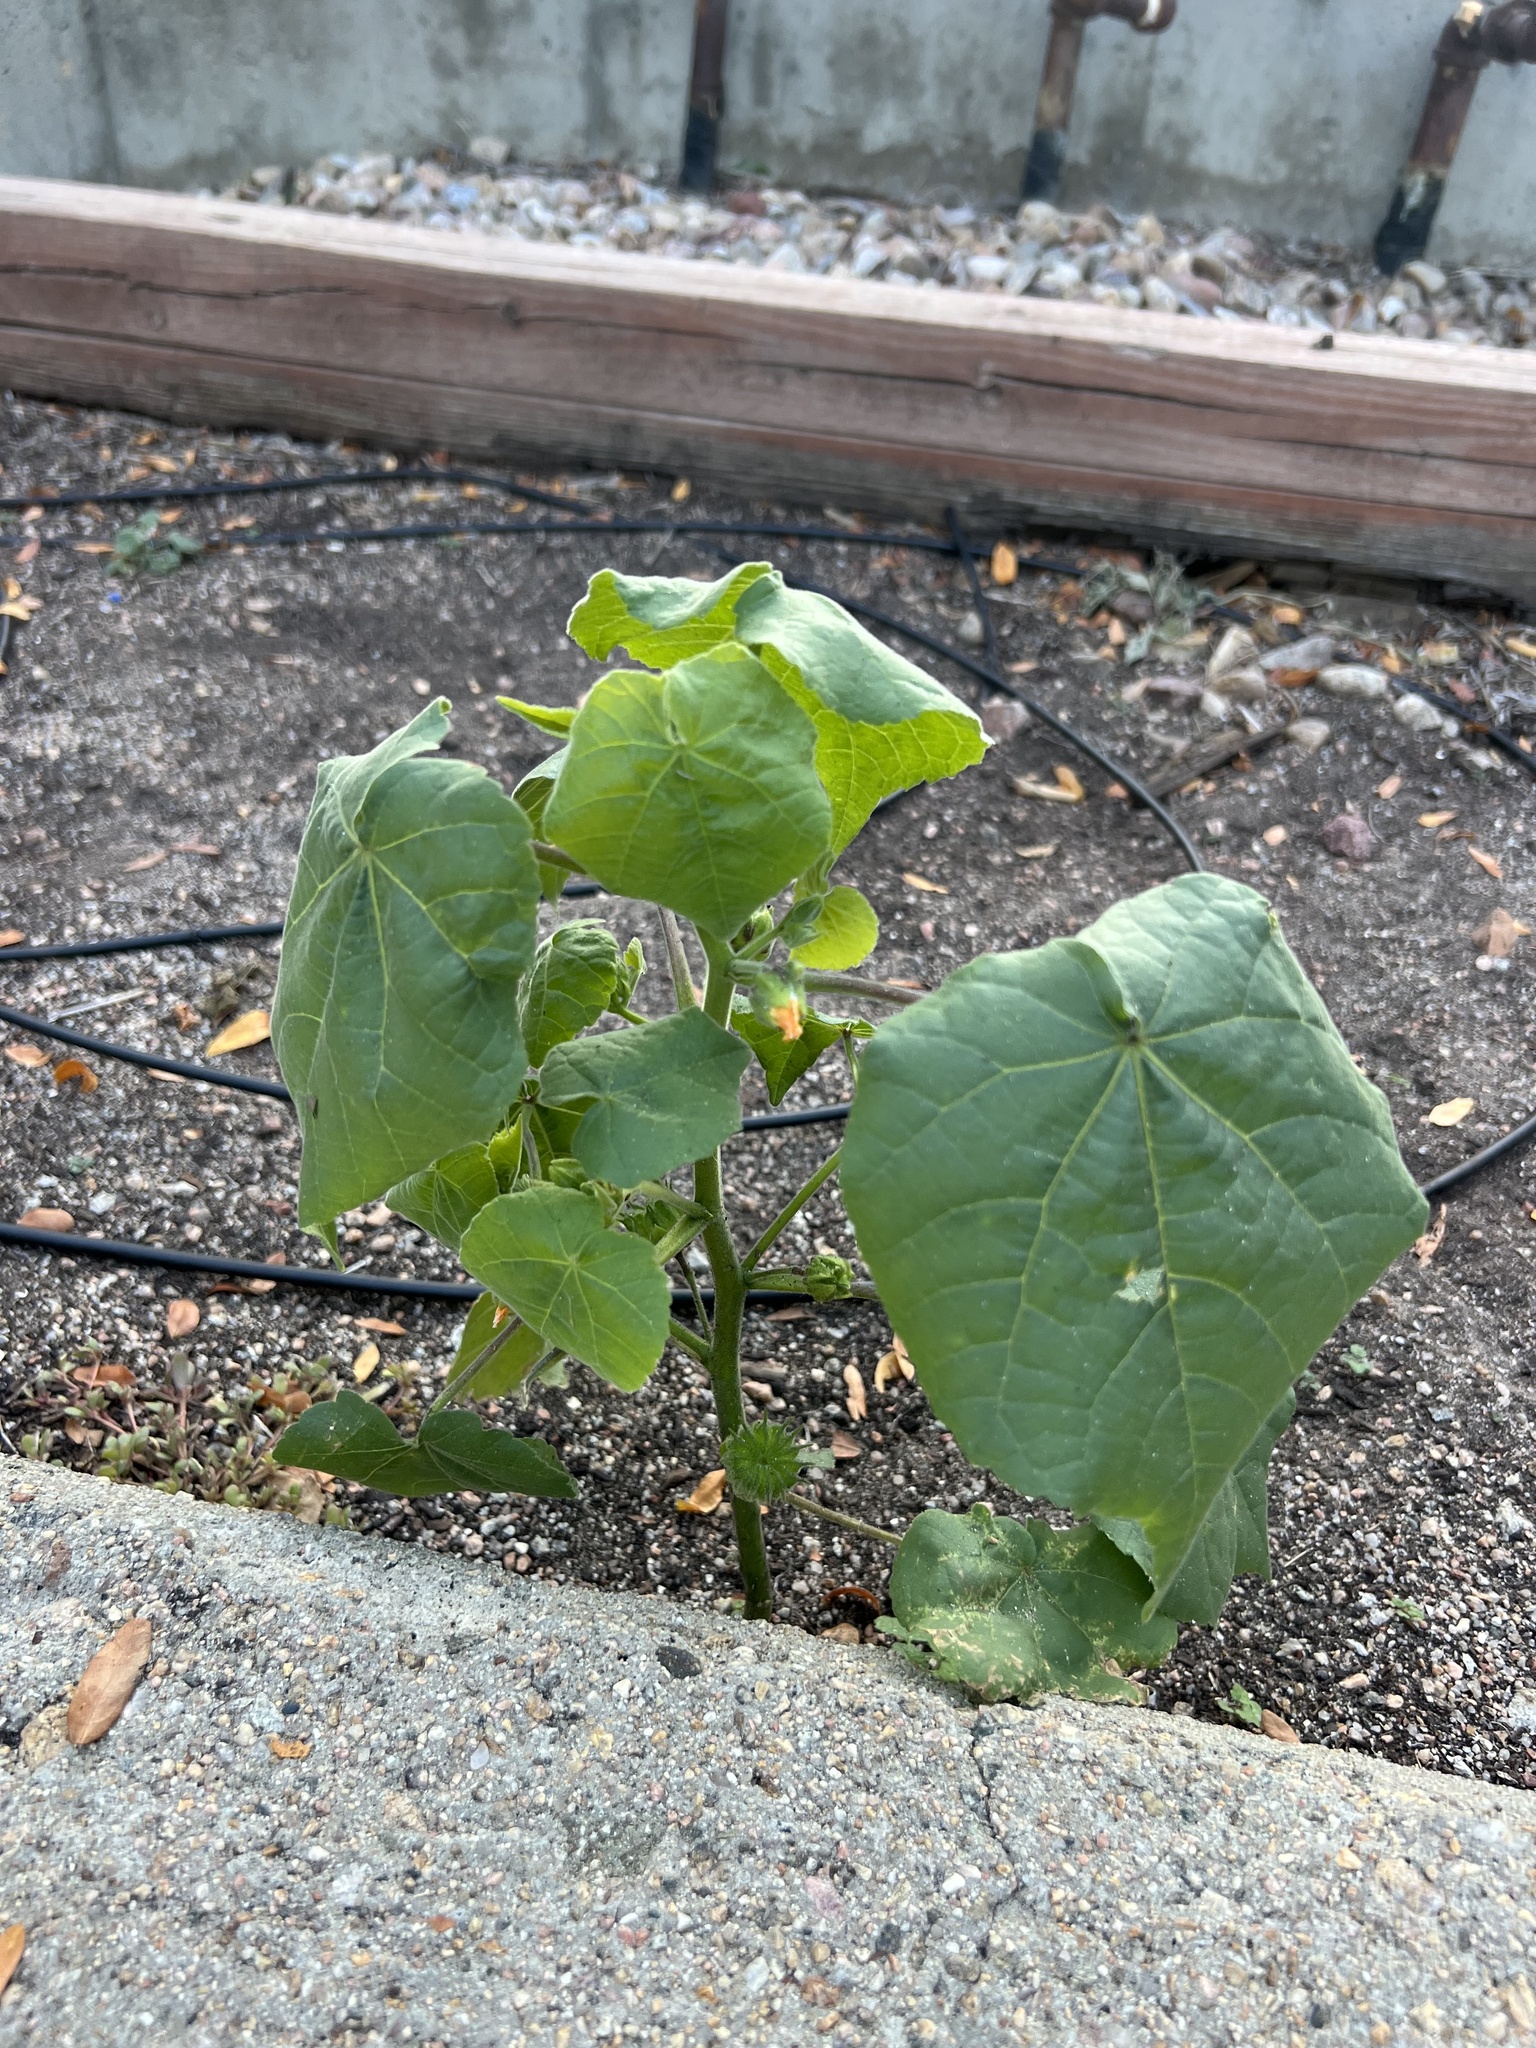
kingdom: Plantae
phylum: Tracheophyta
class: Magnoliopsida
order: Malvales
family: Malvaceae
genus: Abutilon
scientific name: Abutilon theophrasti
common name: Velvetleaf
